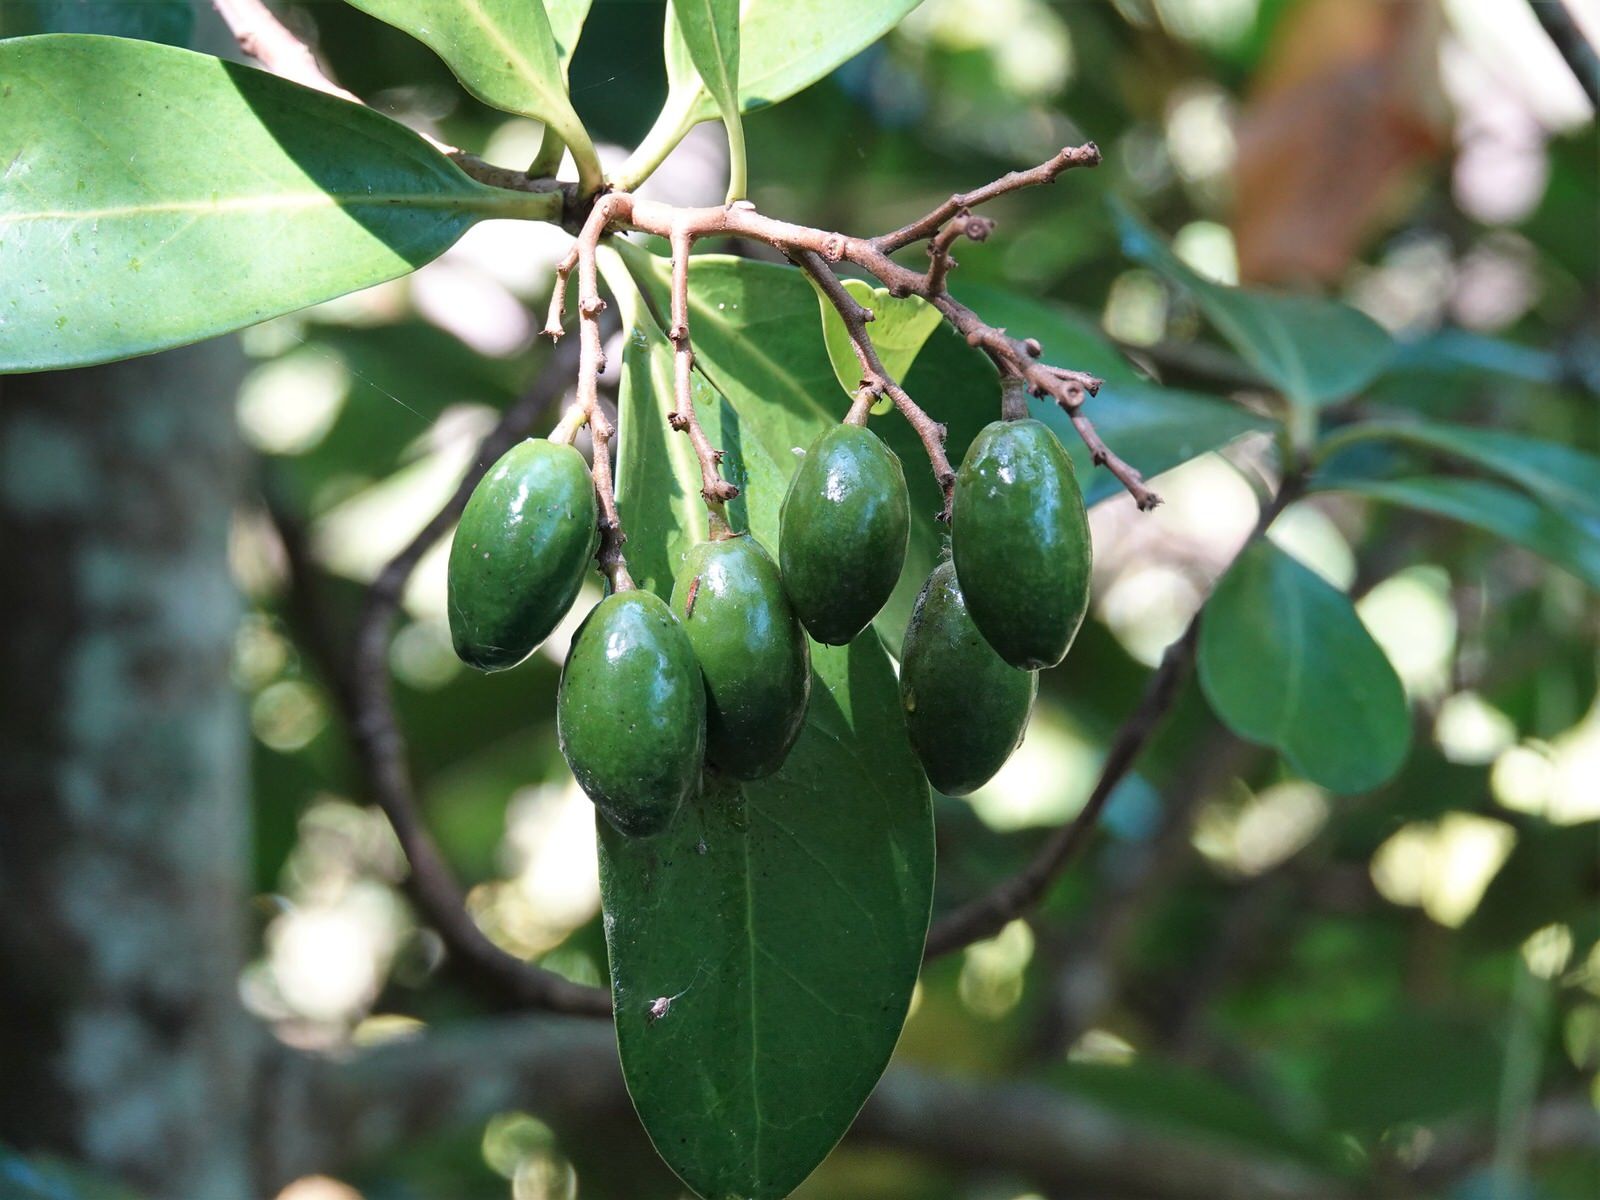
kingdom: Plantae
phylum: Tracheophyta
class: Magnoliopsida
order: Cucurbitales
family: Corynocarpaceae
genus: Corynocarpus
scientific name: Corynocarpus laevigatus
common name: New zealand laurel
